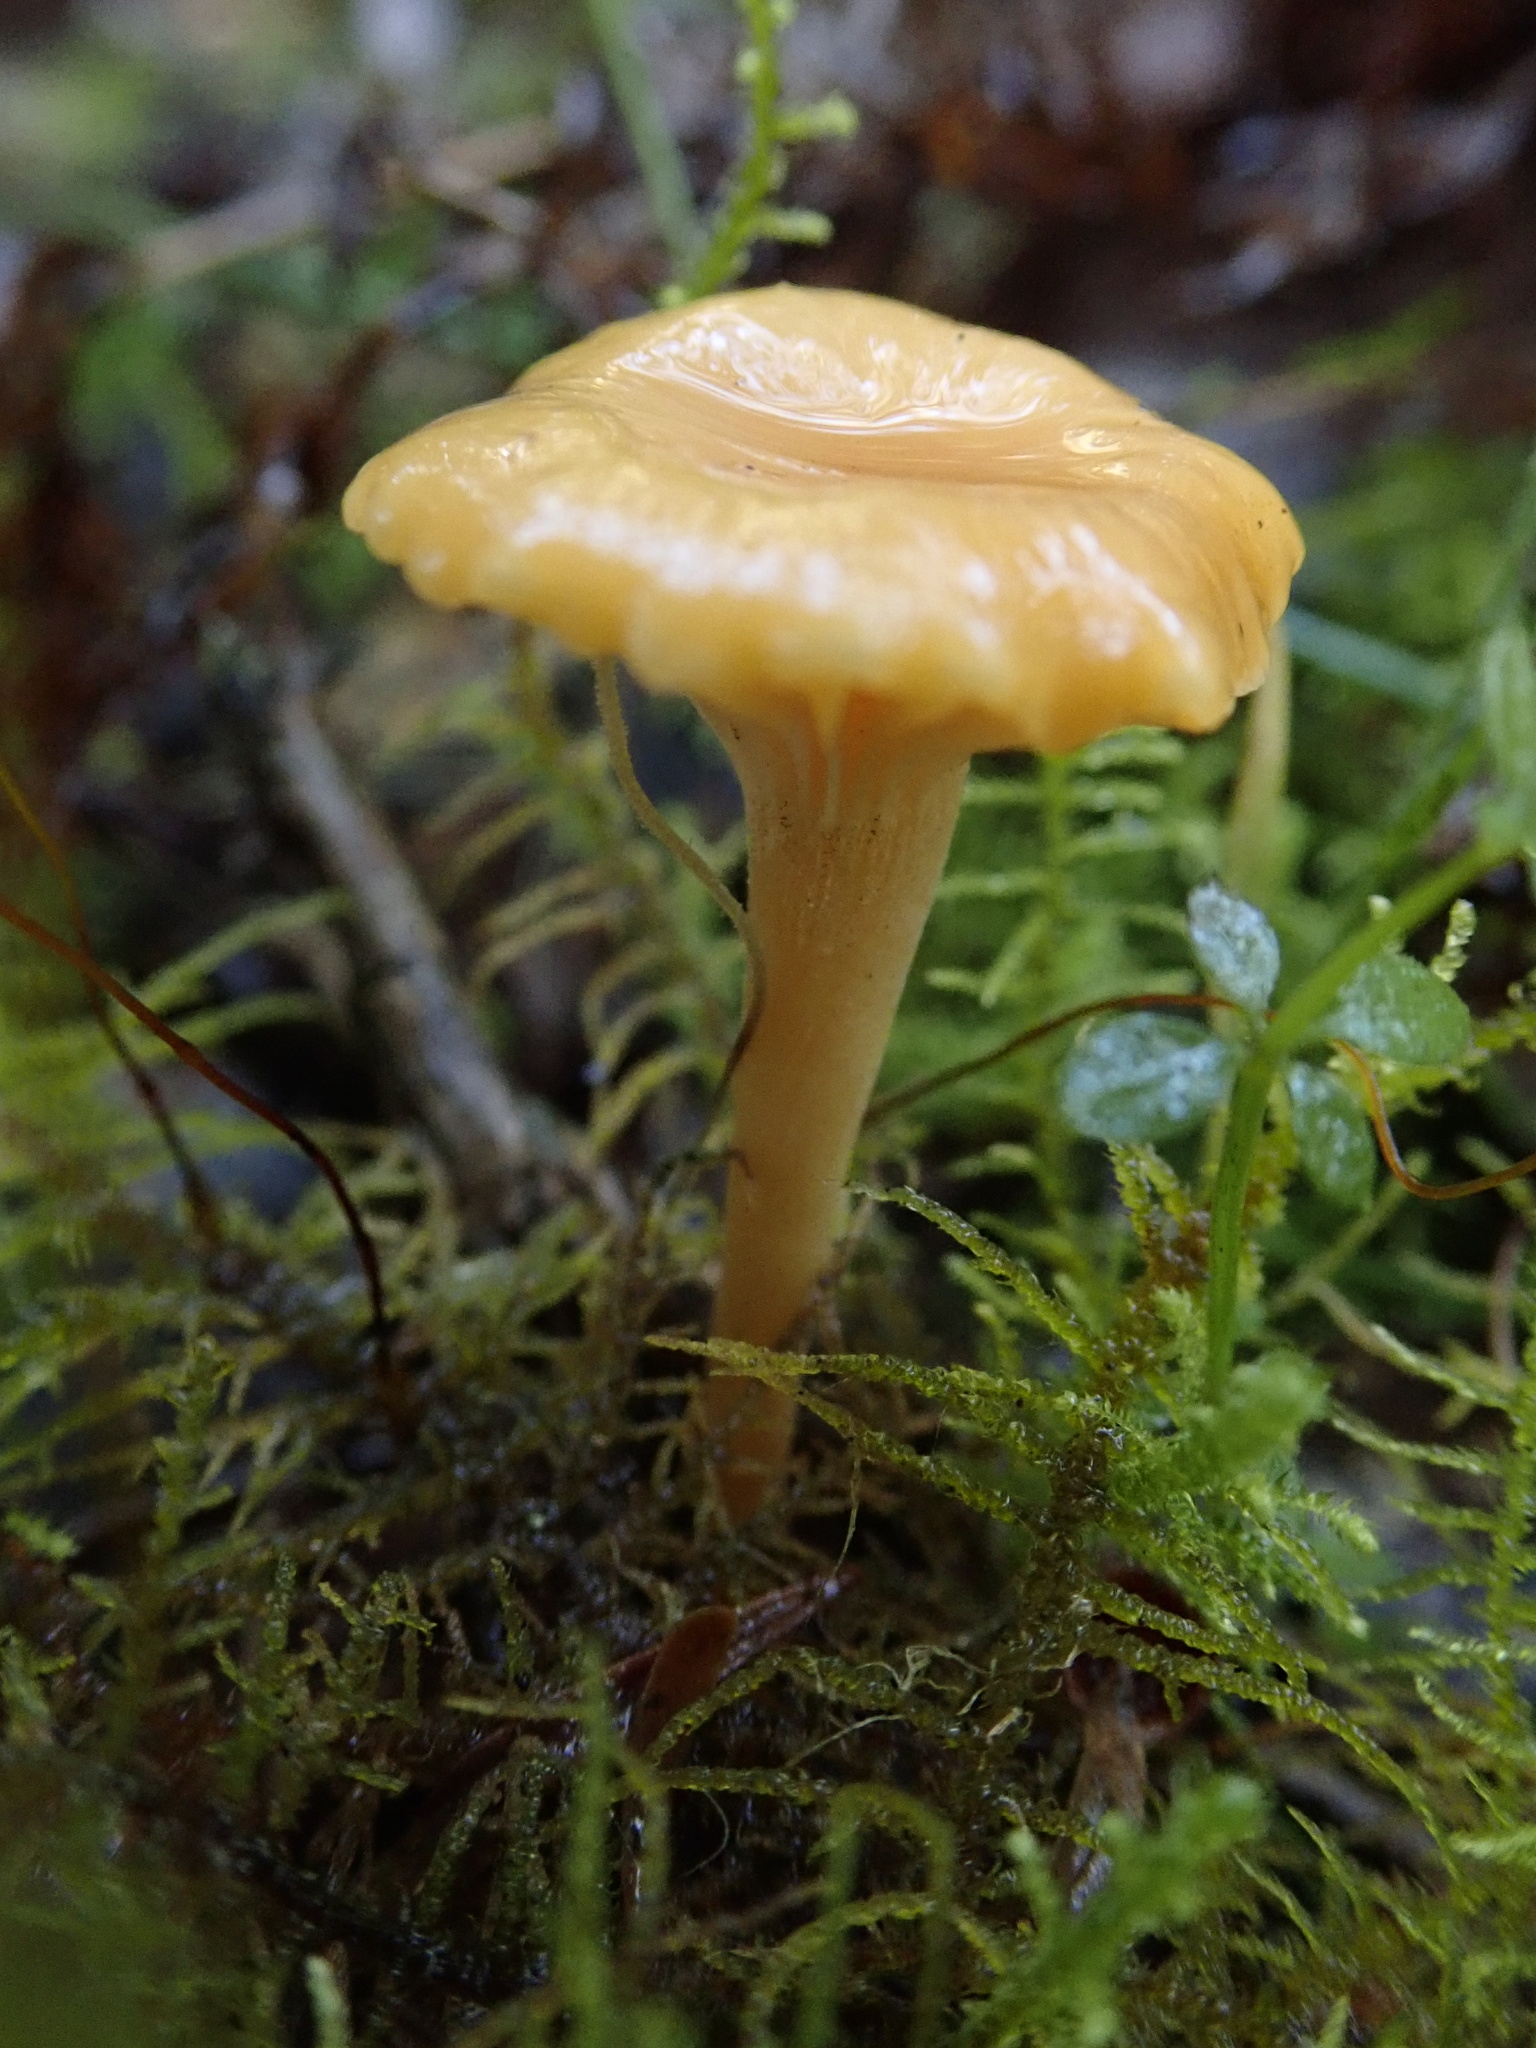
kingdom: Fungi
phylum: Basidiomycota
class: Agaricomycetes
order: Agaricales
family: Hygrophoraceae
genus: Gloioxanthomyces
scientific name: Gloioxanthomyces
